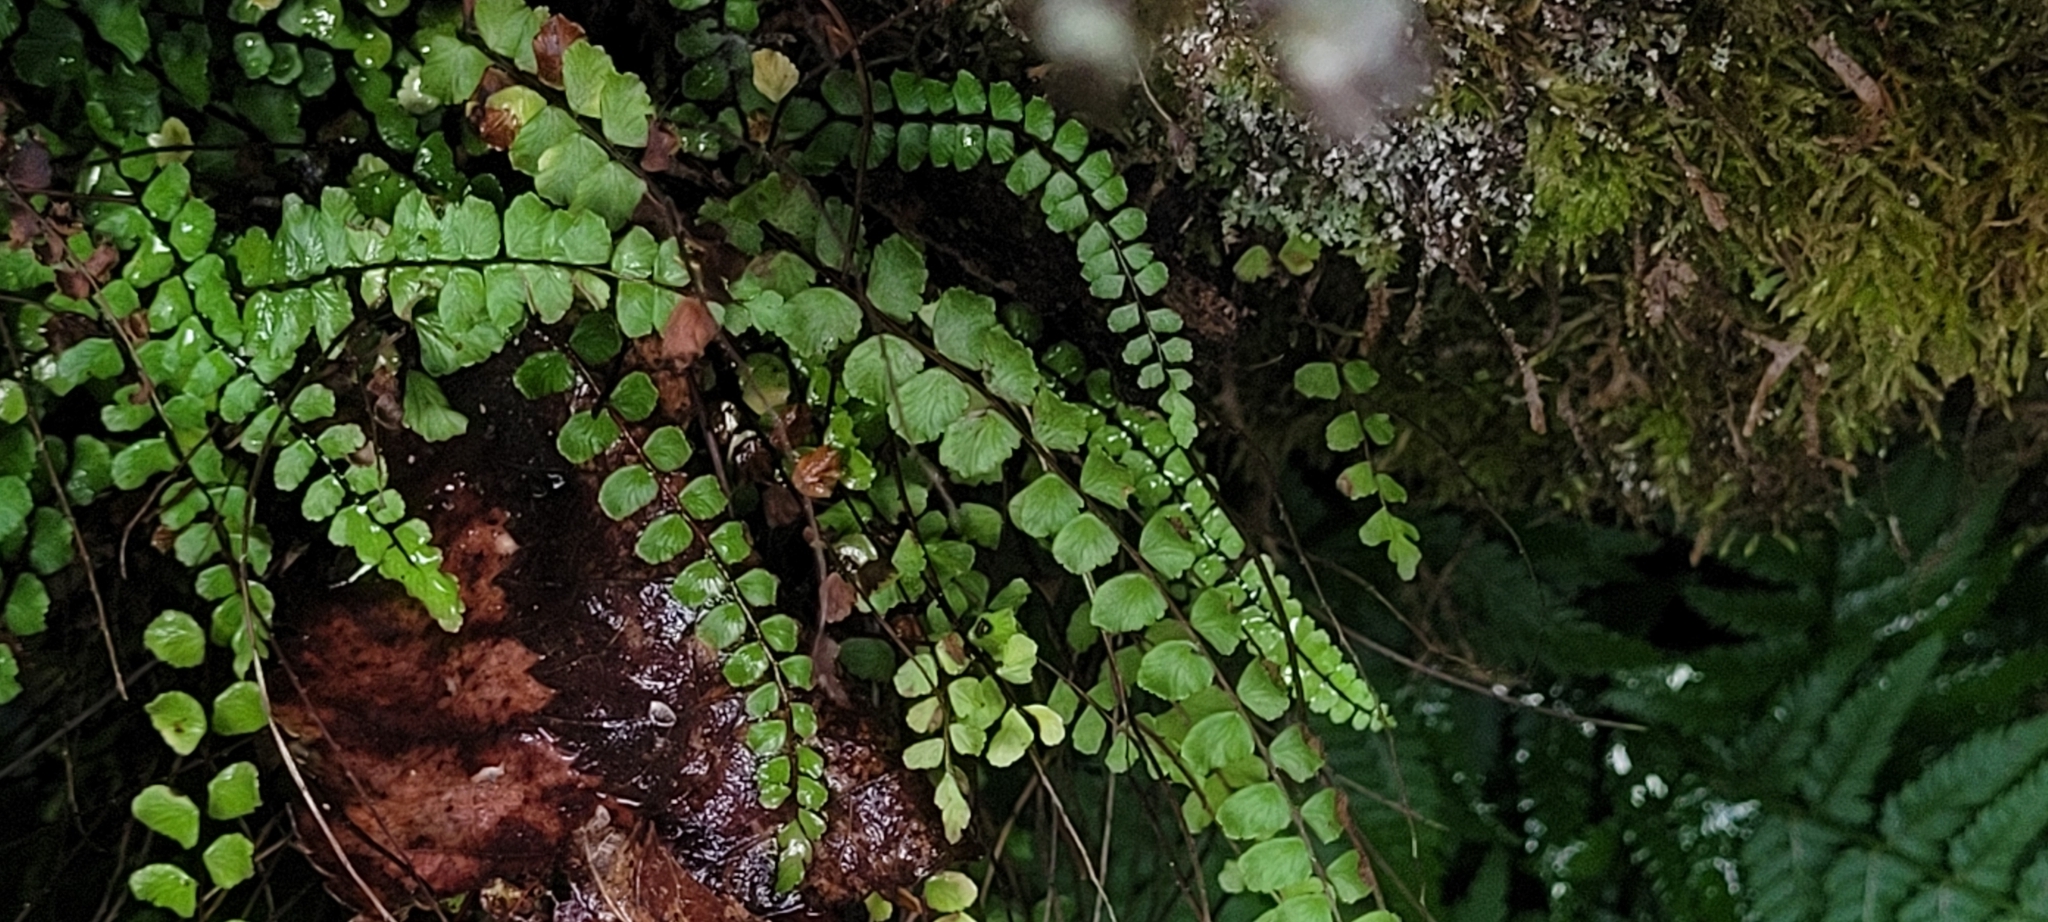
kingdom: Plantae
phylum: Tracheophyta
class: Polypodiopsida
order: Polypodiales
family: Aspleniaceae
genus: Asplenium
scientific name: Asplenium trichomanes
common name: Maidenhair spleenwort
